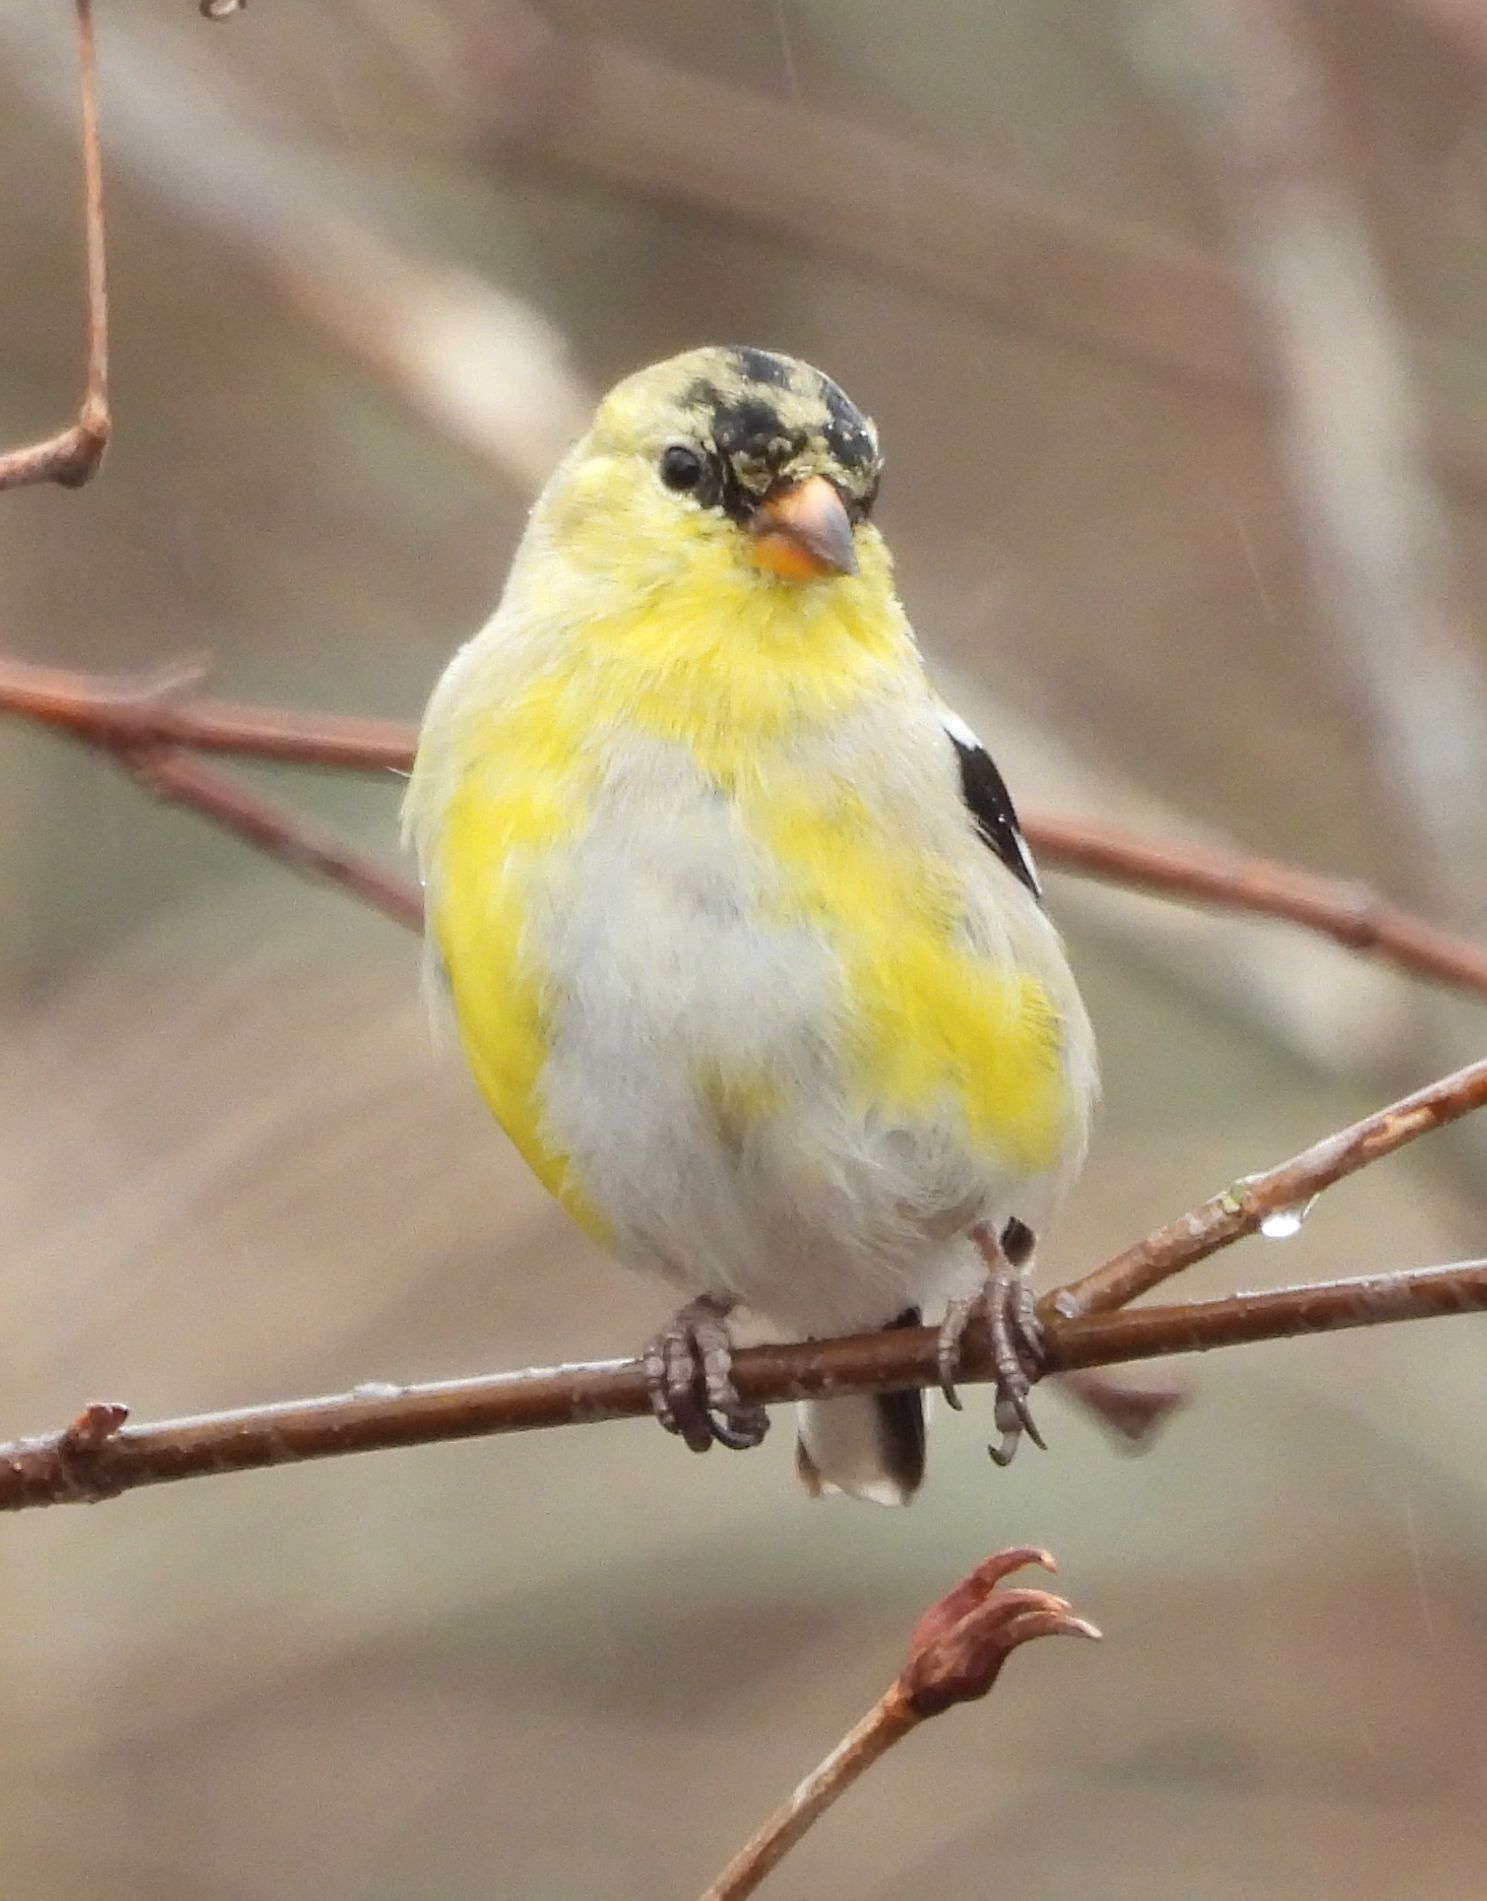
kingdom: Animalia
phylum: Chordata
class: Aves
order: Passeriformes
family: Fringillidae
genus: Spinus
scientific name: Spinus tristis
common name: American goldfinch
